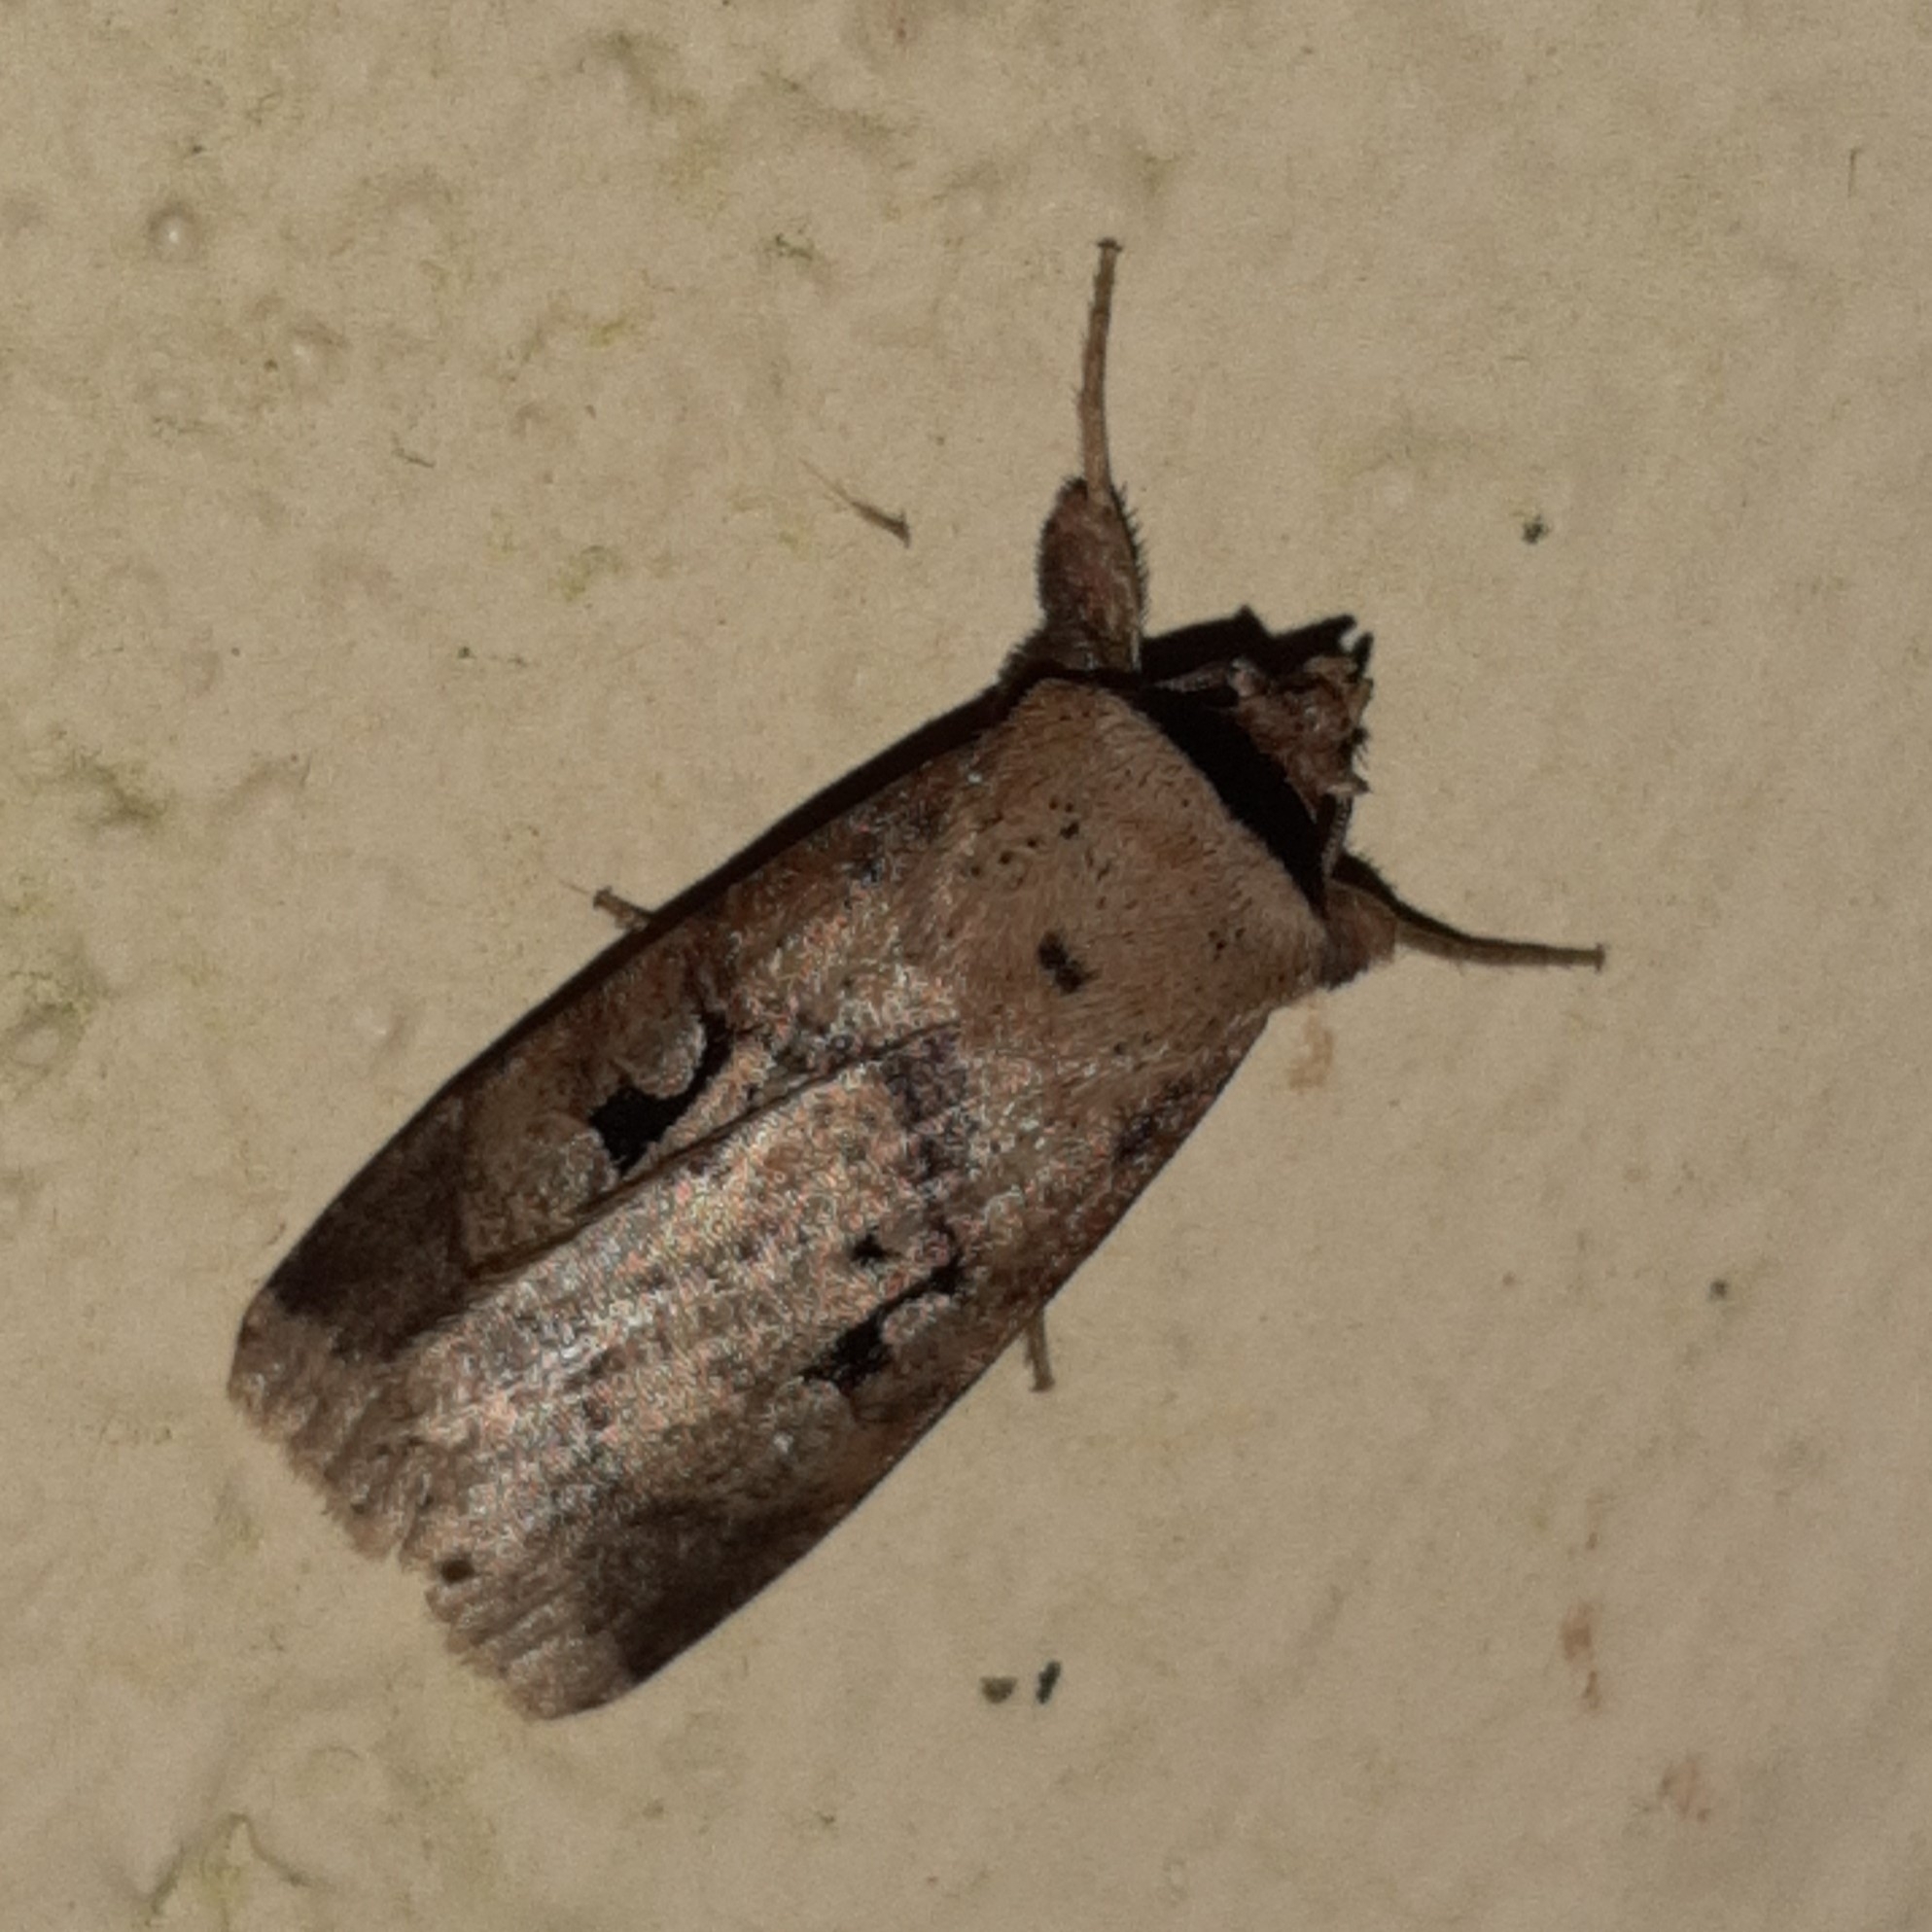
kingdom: Animalia
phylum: Arthropoda
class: Insecta
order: Lepidoptera
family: Noctuidae
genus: Praina
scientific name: Praina
